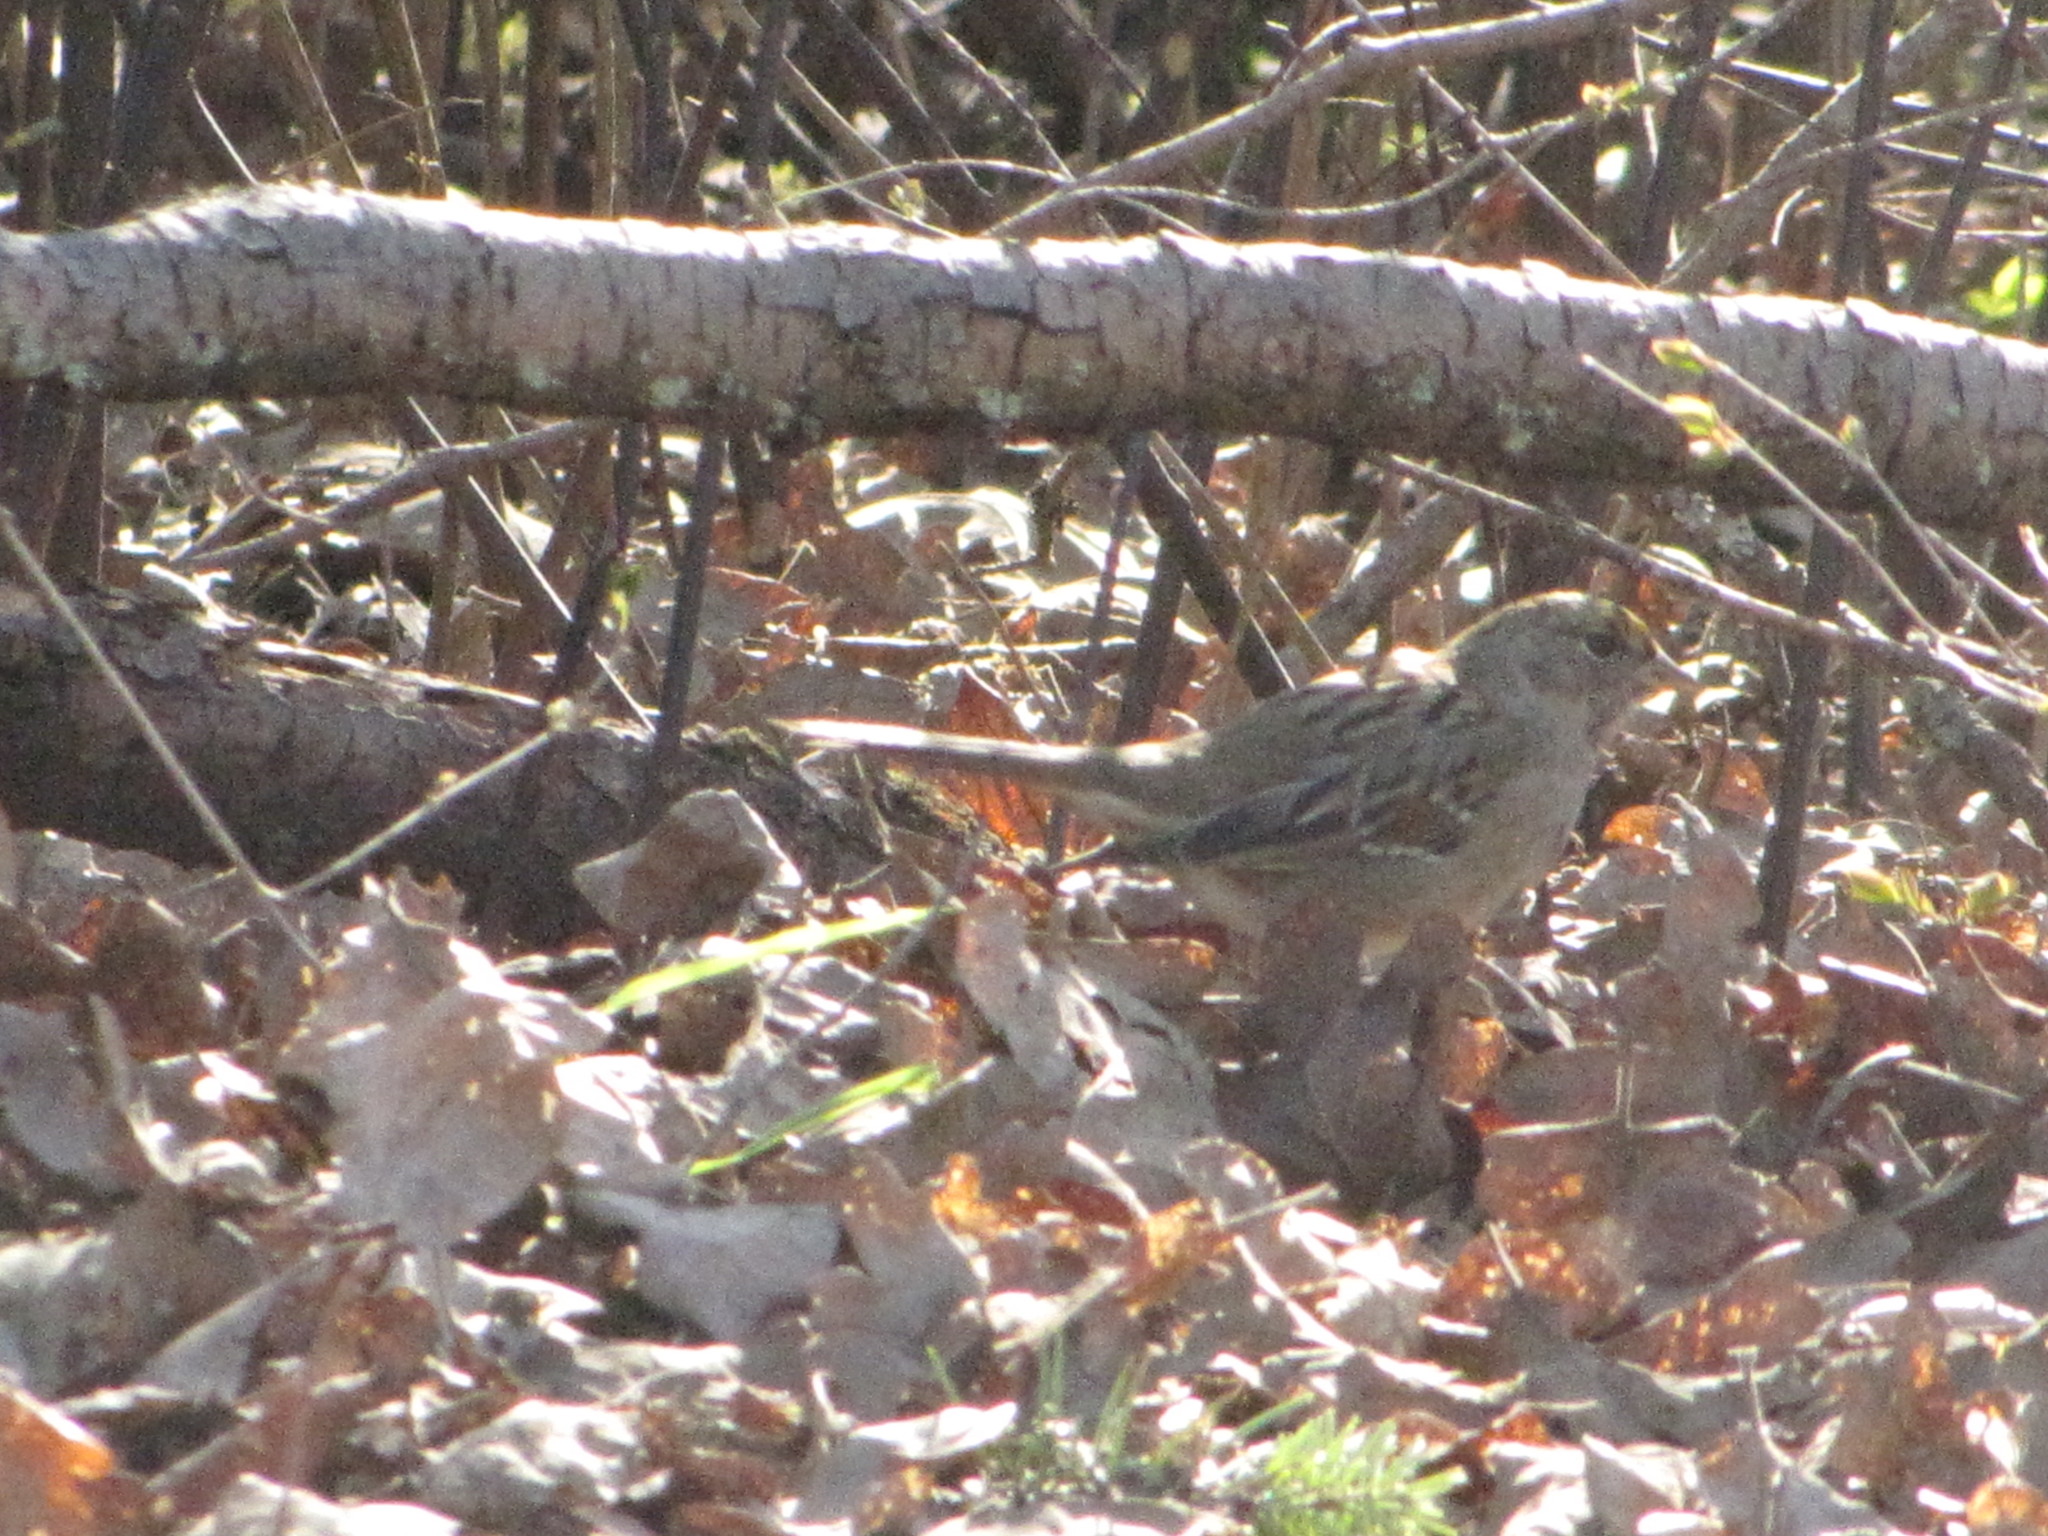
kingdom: Animalia
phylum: Chordata
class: Aves
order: Passeriformes
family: Passerellidae
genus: Zonotrichia
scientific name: Zonotrichia atricapilla
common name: Golden-crowned sparrow
